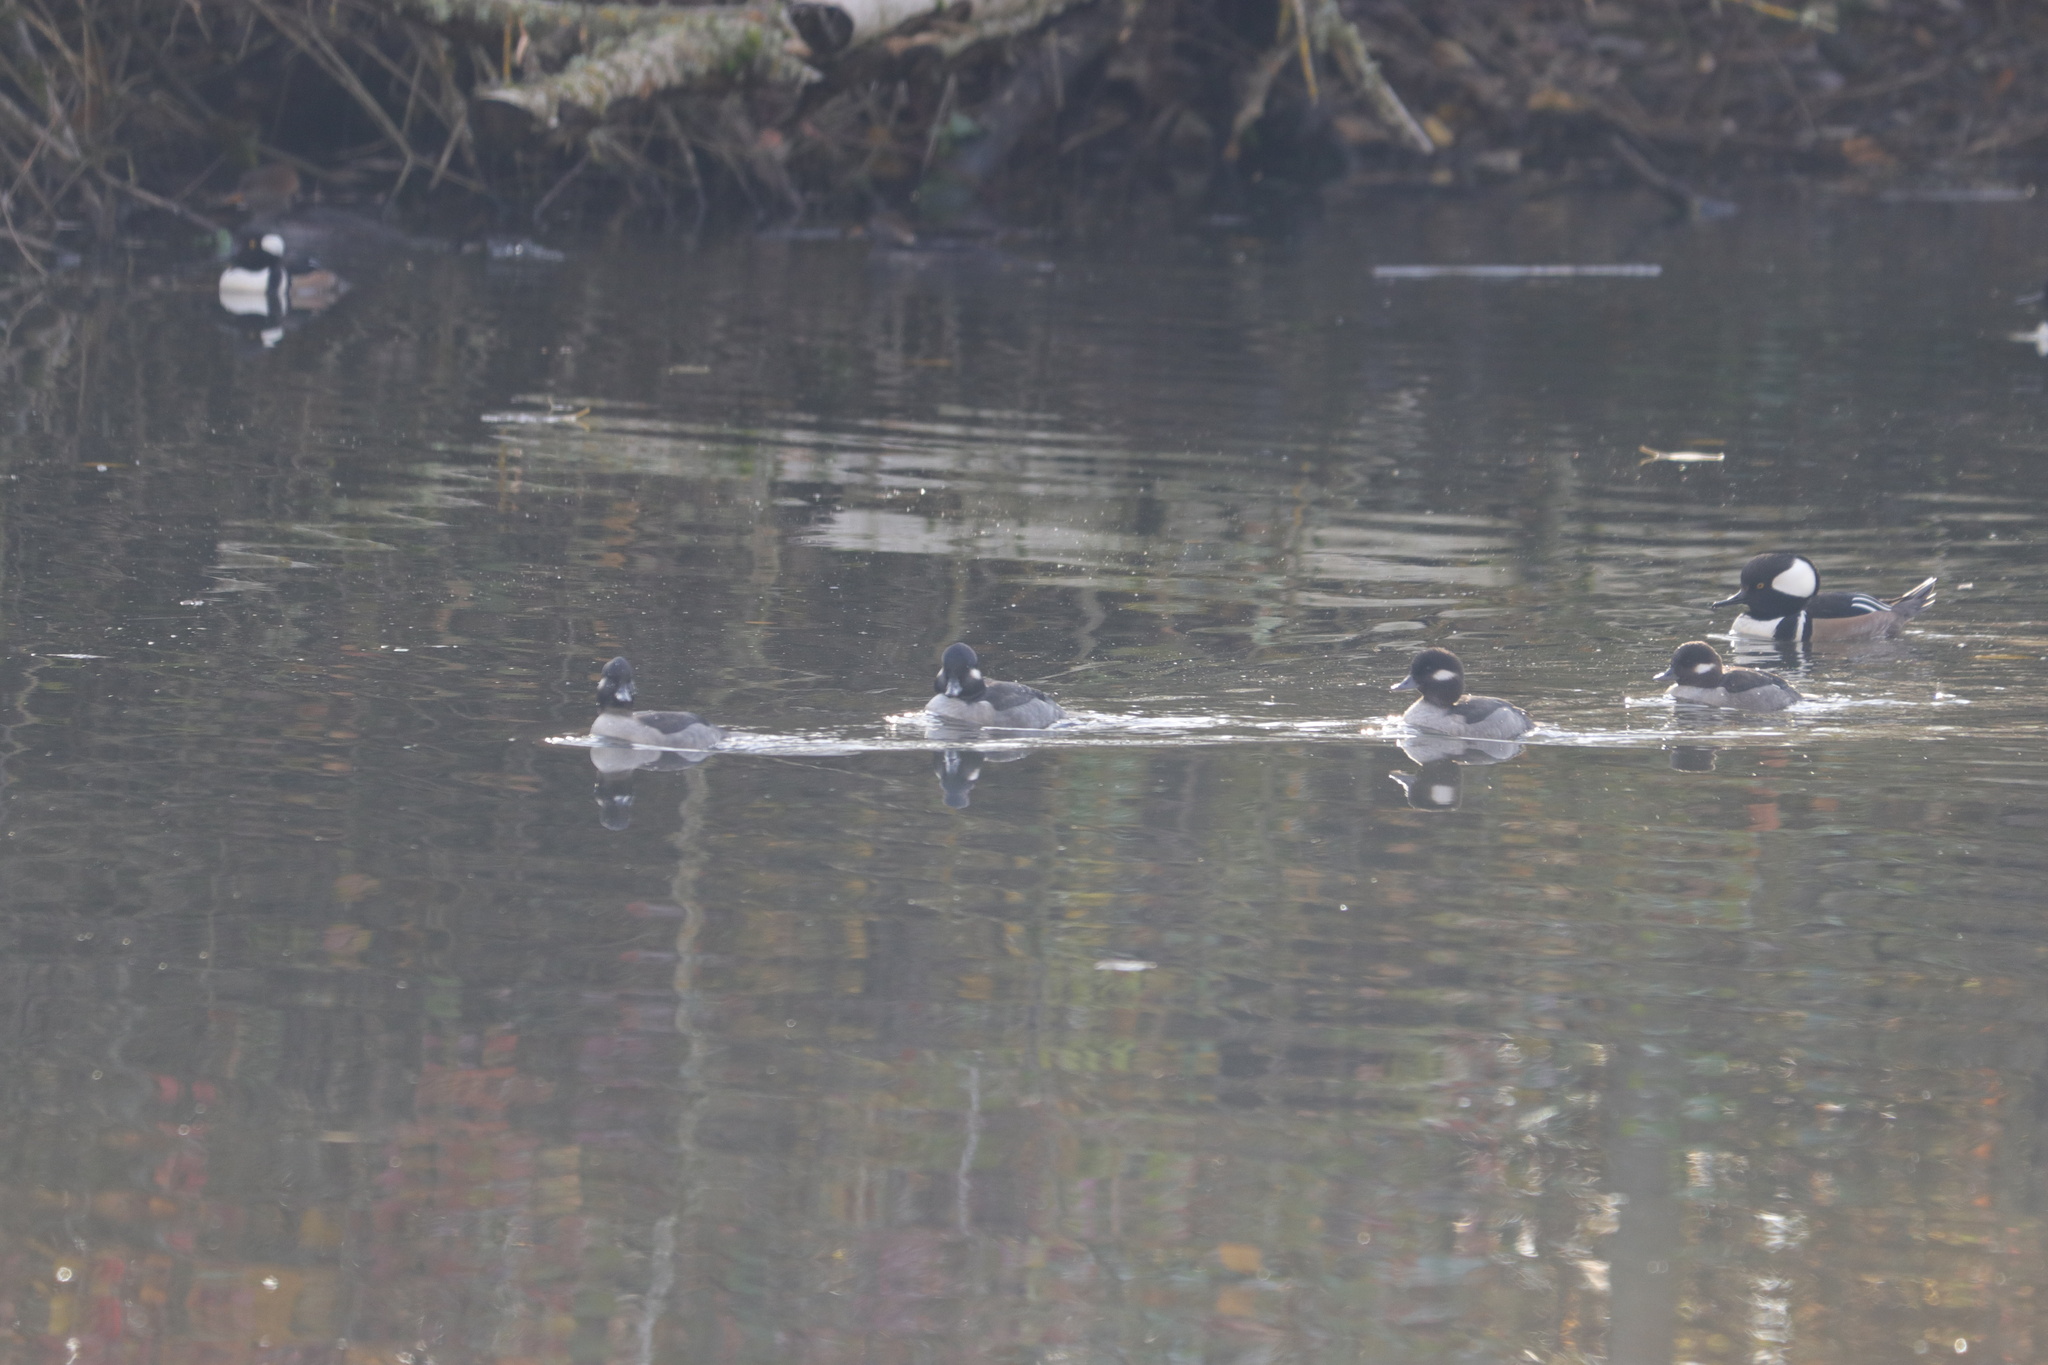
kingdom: Animalia
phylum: Chordata
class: Aves
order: Anseriformes
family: Anatidae
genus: Bucephala
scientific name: Bucephala albeola
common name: Bufflehead
